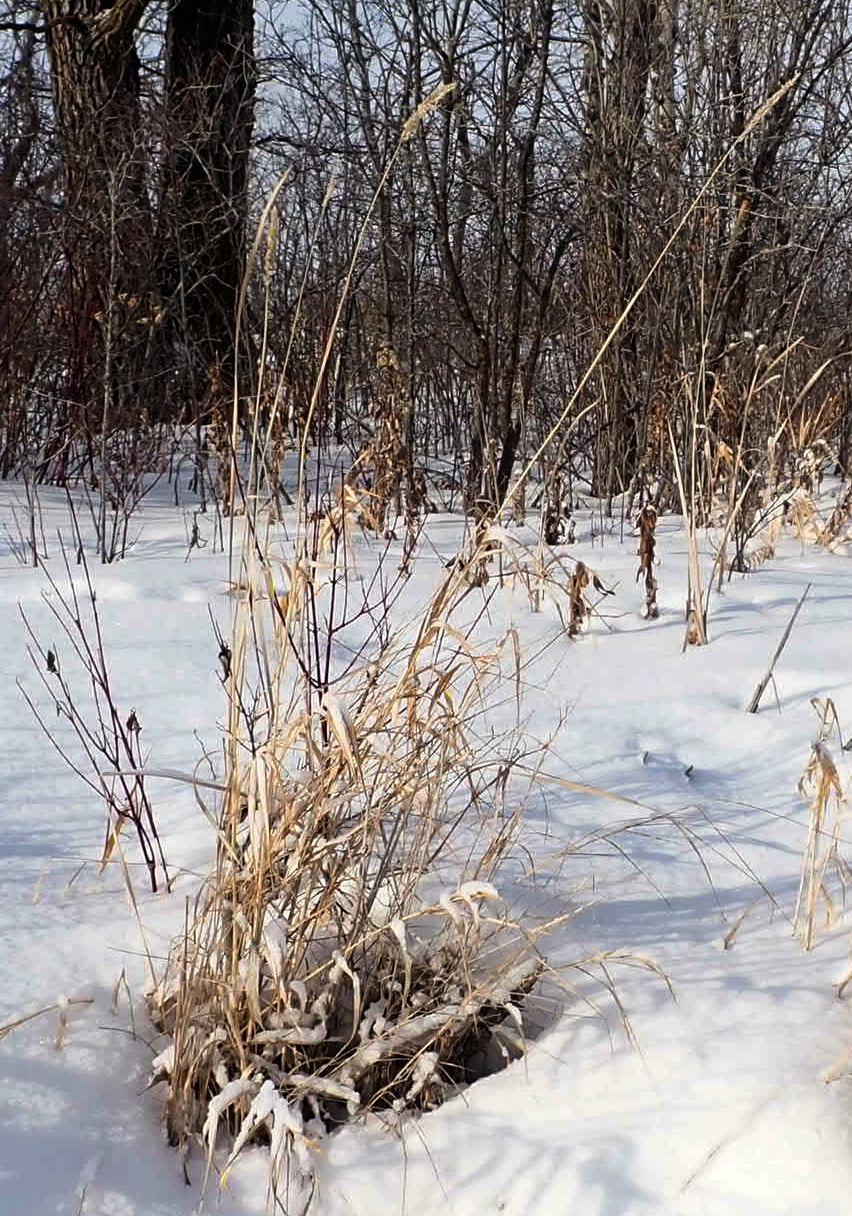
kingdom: Plantae
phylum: Tracheophyta
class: Liliopsida
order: Poales
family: Poaceae
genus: Phalaris
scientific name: Phalaris arundinacea
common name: Reed canary-grass
